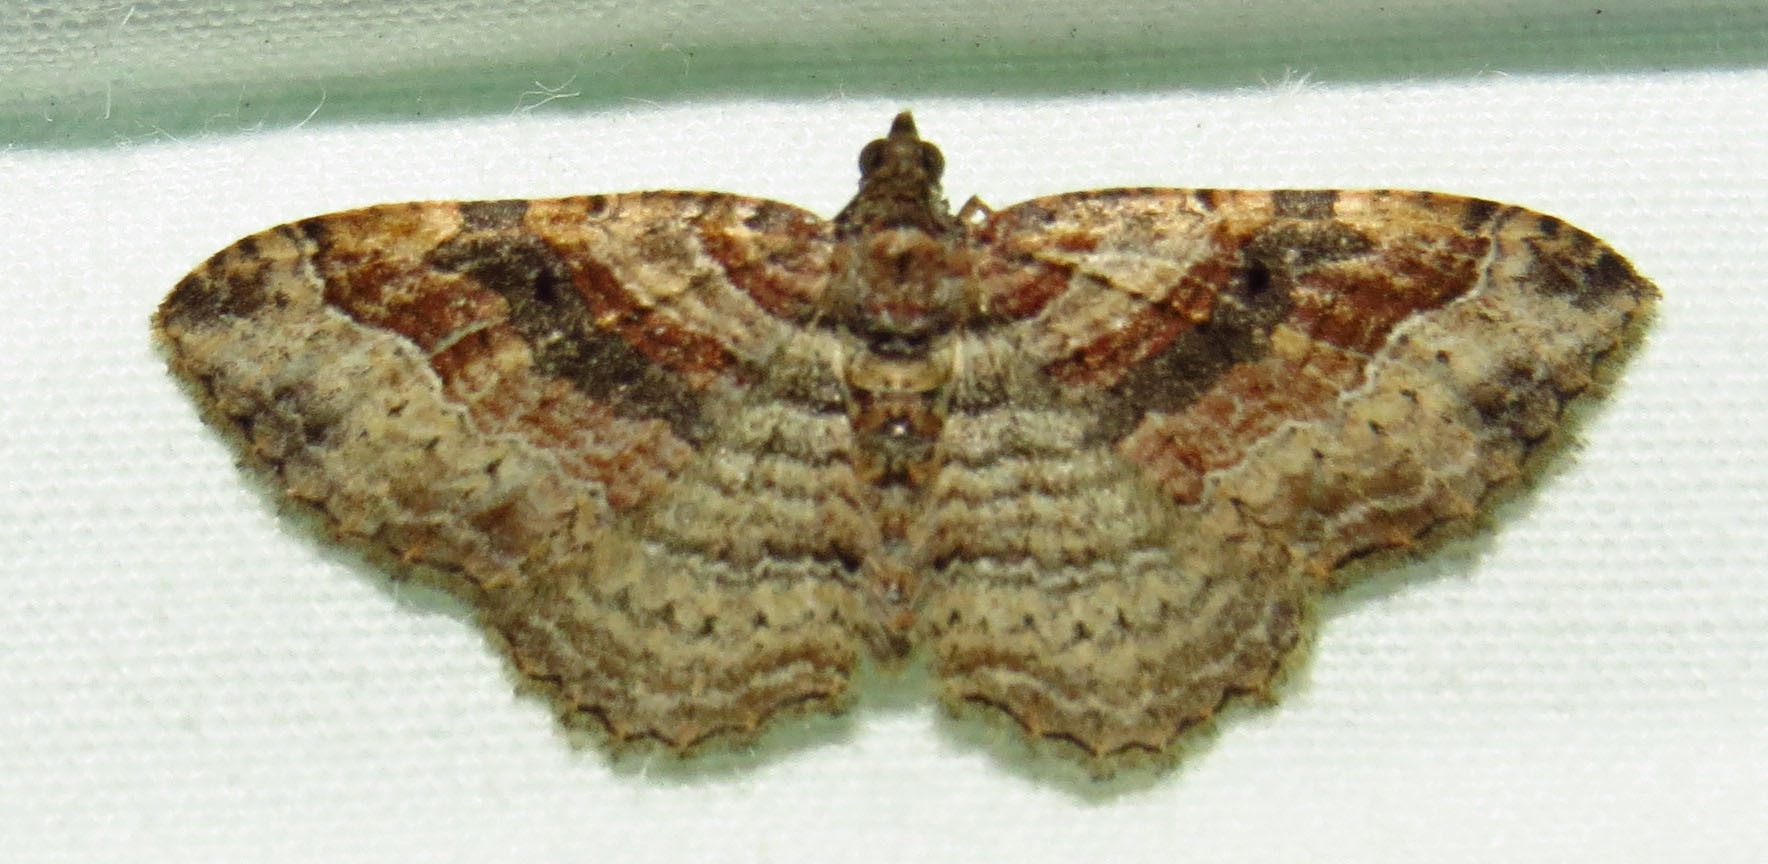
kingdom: Animalia
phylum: Arthropoda
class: Insecta
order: Lepidoptera
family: Geometridae
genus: Costaconvexa
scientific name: Costaconvexa centrostrigaria
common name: Bent-line carpet
